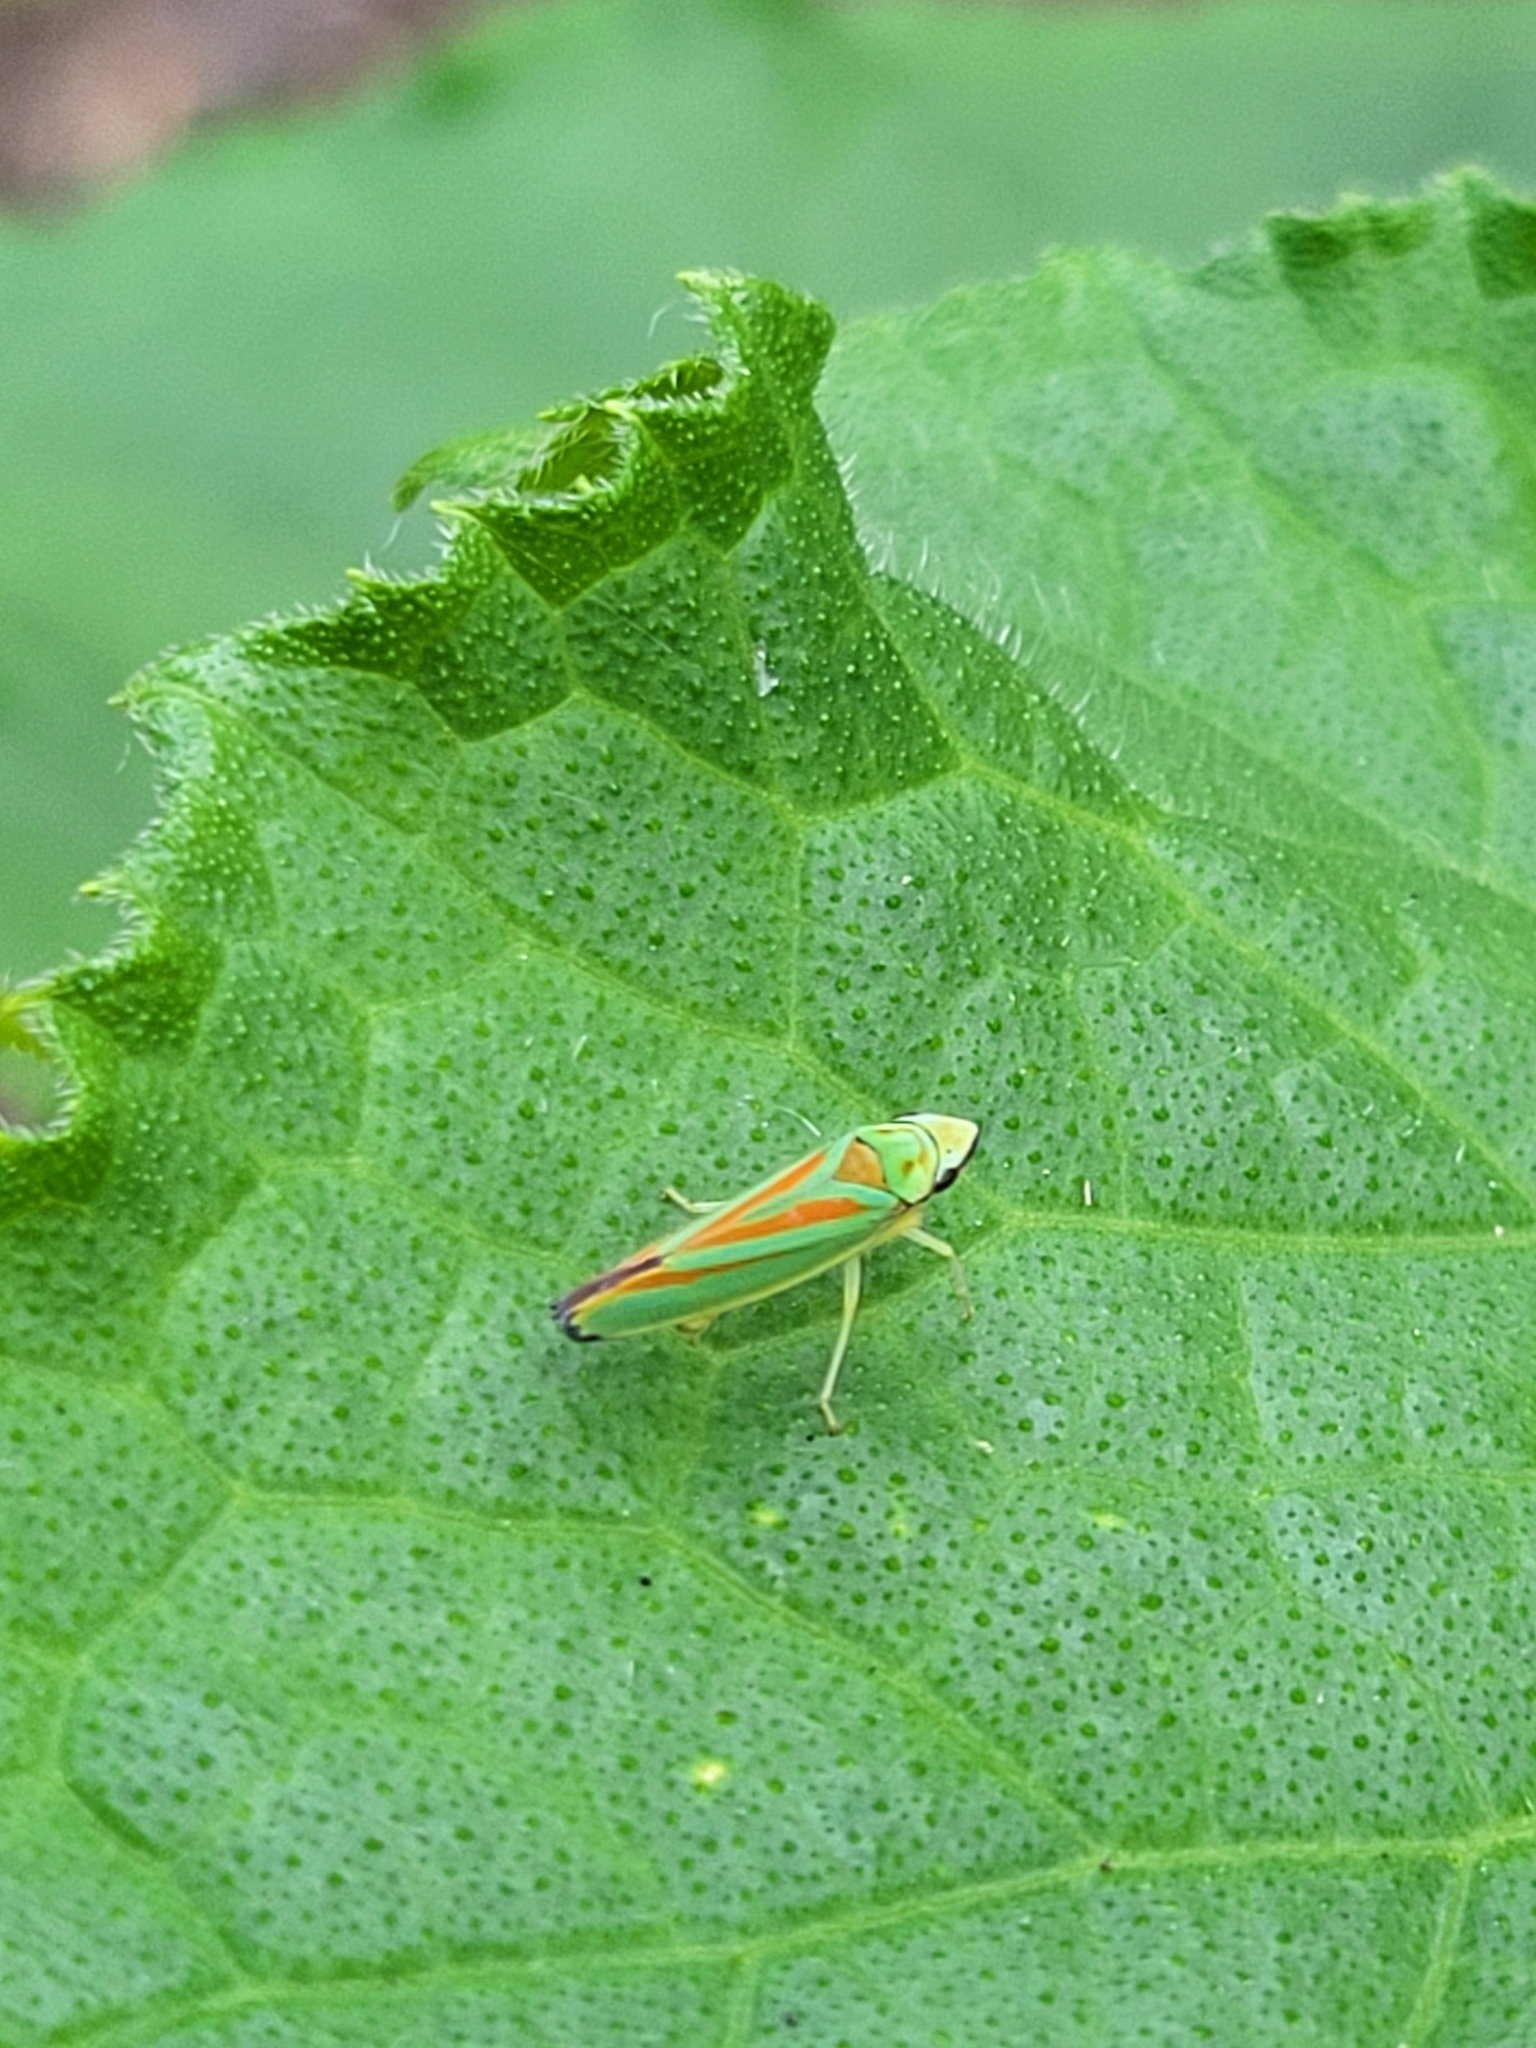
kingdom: Animalia
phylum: Arthropoda
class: Insecta
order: Hemiptera
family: Cicadellidae
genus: Graphocephala
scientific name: Graphocephala fennahi
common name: Rhododendron leafhopper
